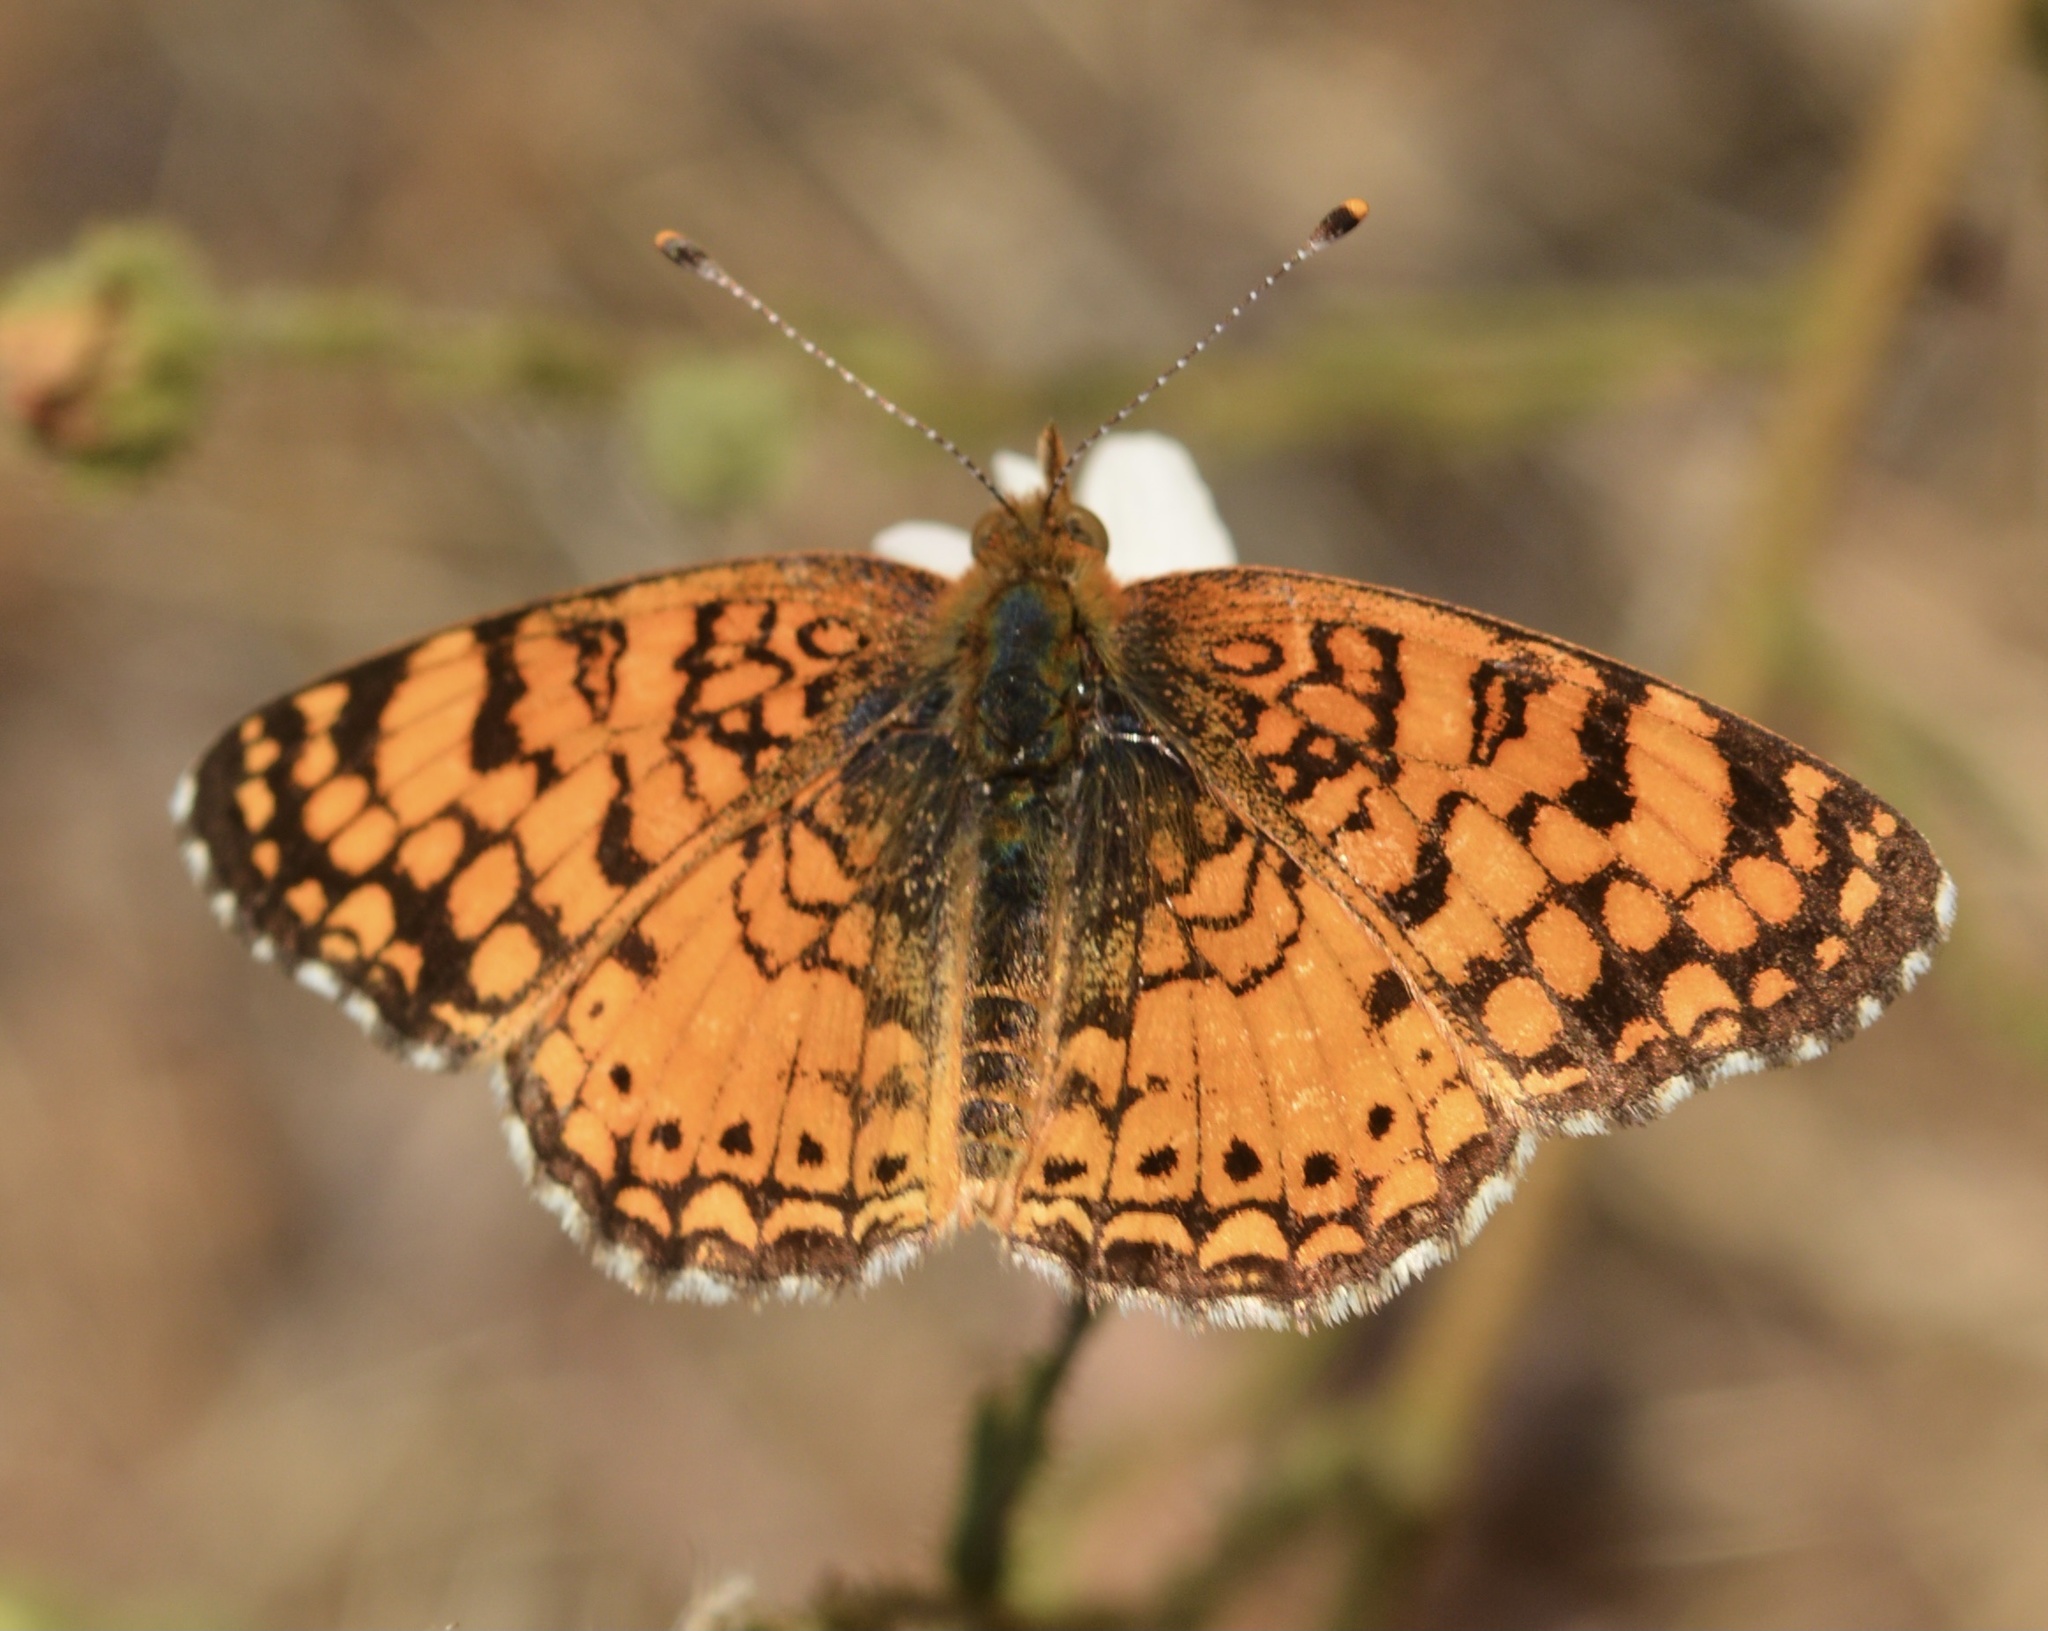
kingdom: Animalia
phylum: Arthropoda
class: Insecta
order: Lepidoptera
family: Nymphalidae
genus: Eresia
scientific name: Eresia aveyrona
